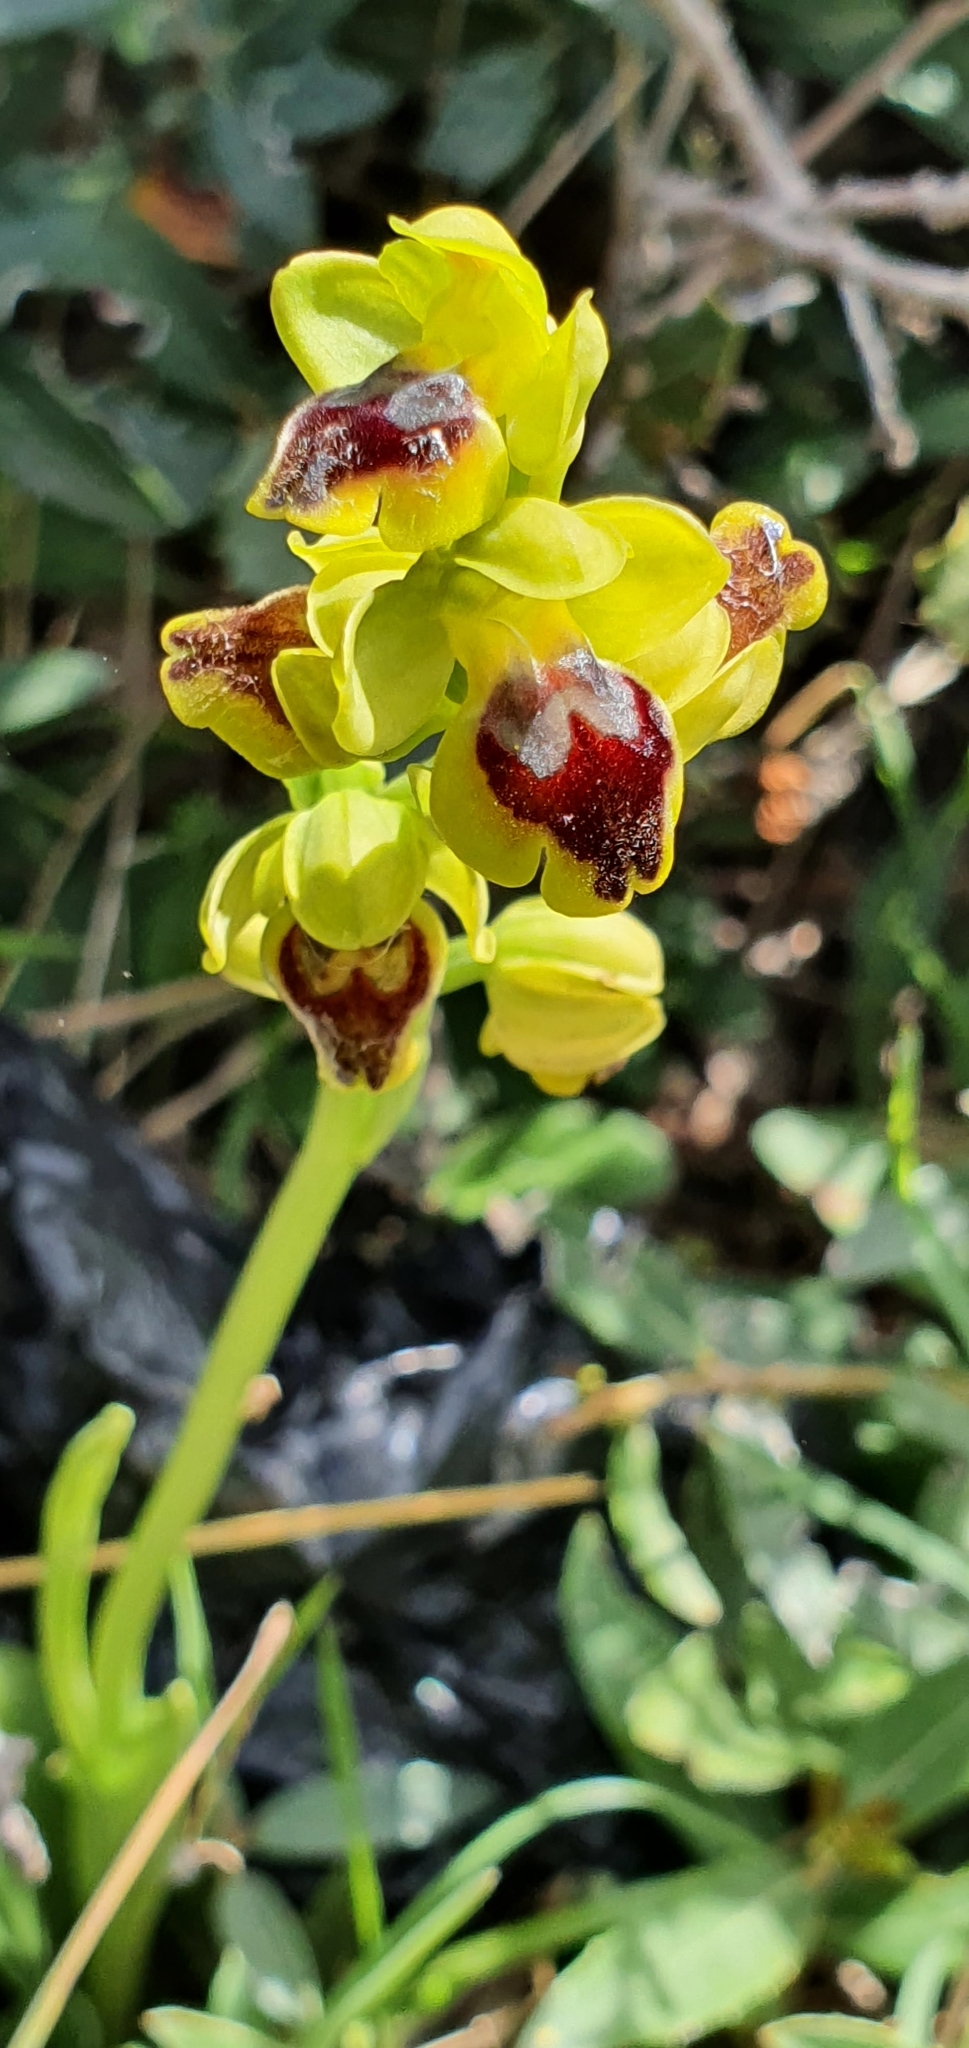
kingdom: Plantae
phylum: Tracheophyta
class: Liliopsida
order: Asparagales
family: Orchidaceae
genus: Ophrys
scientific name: Ophrys battandieri
